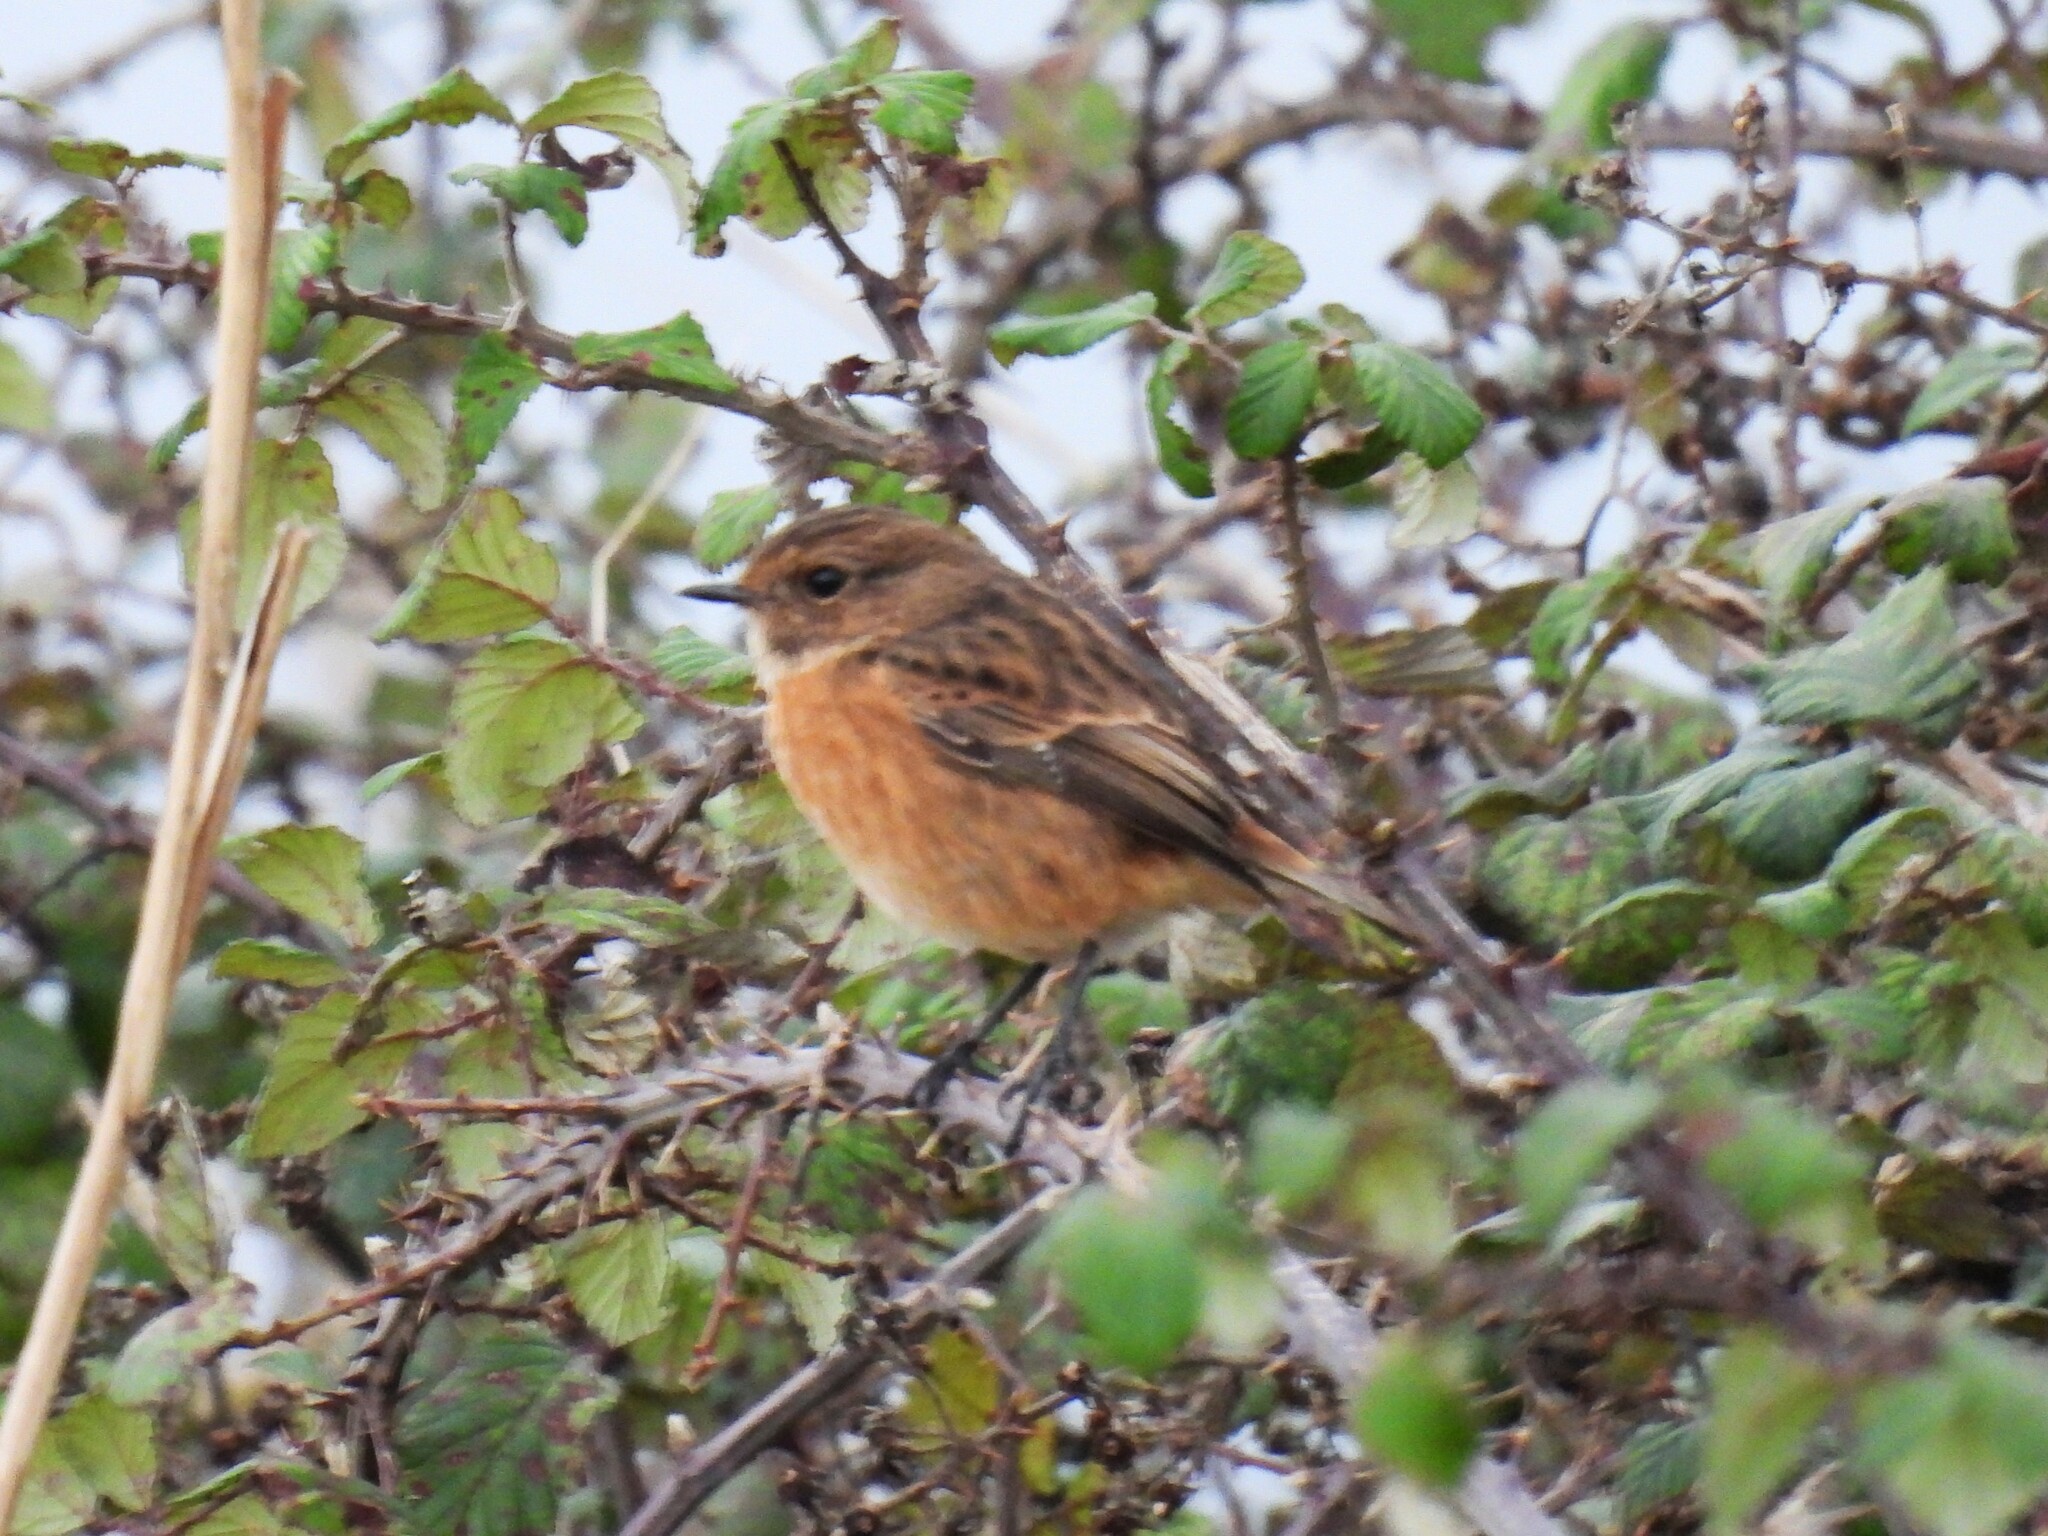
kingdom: Animalia
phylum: Chordata
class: Aves
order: Passeriformes
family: Muscicapidae
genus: Saxicola
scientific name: Saxicola rubicola
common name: European stonechat
